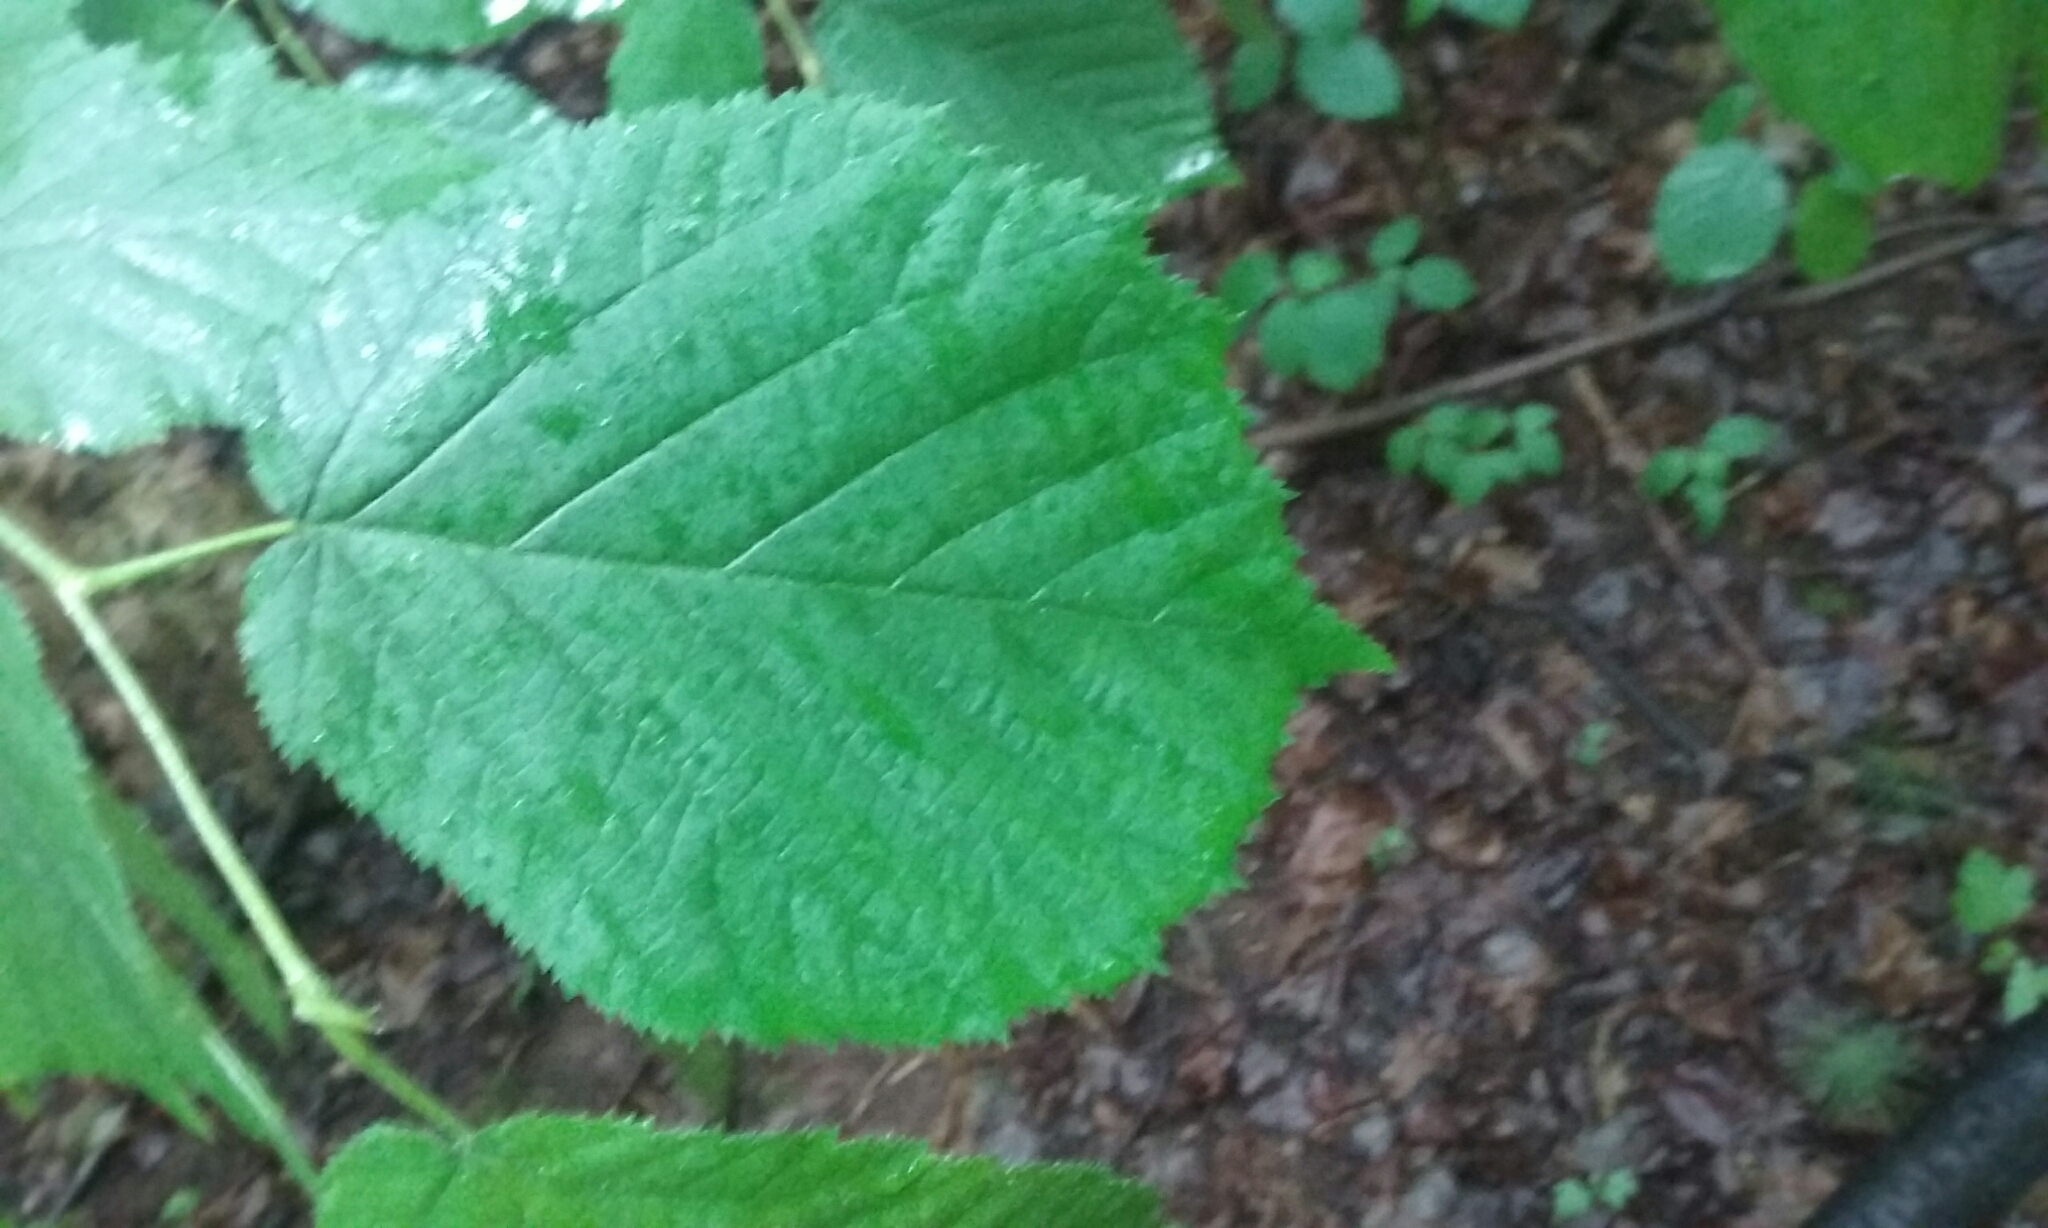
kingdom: Plantae
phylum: Tracheophyta
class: Magnoliopsida
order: Fagales
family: Betulaceae
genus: Corylus
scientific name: Corylus cornuta
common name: Beaked hazel
